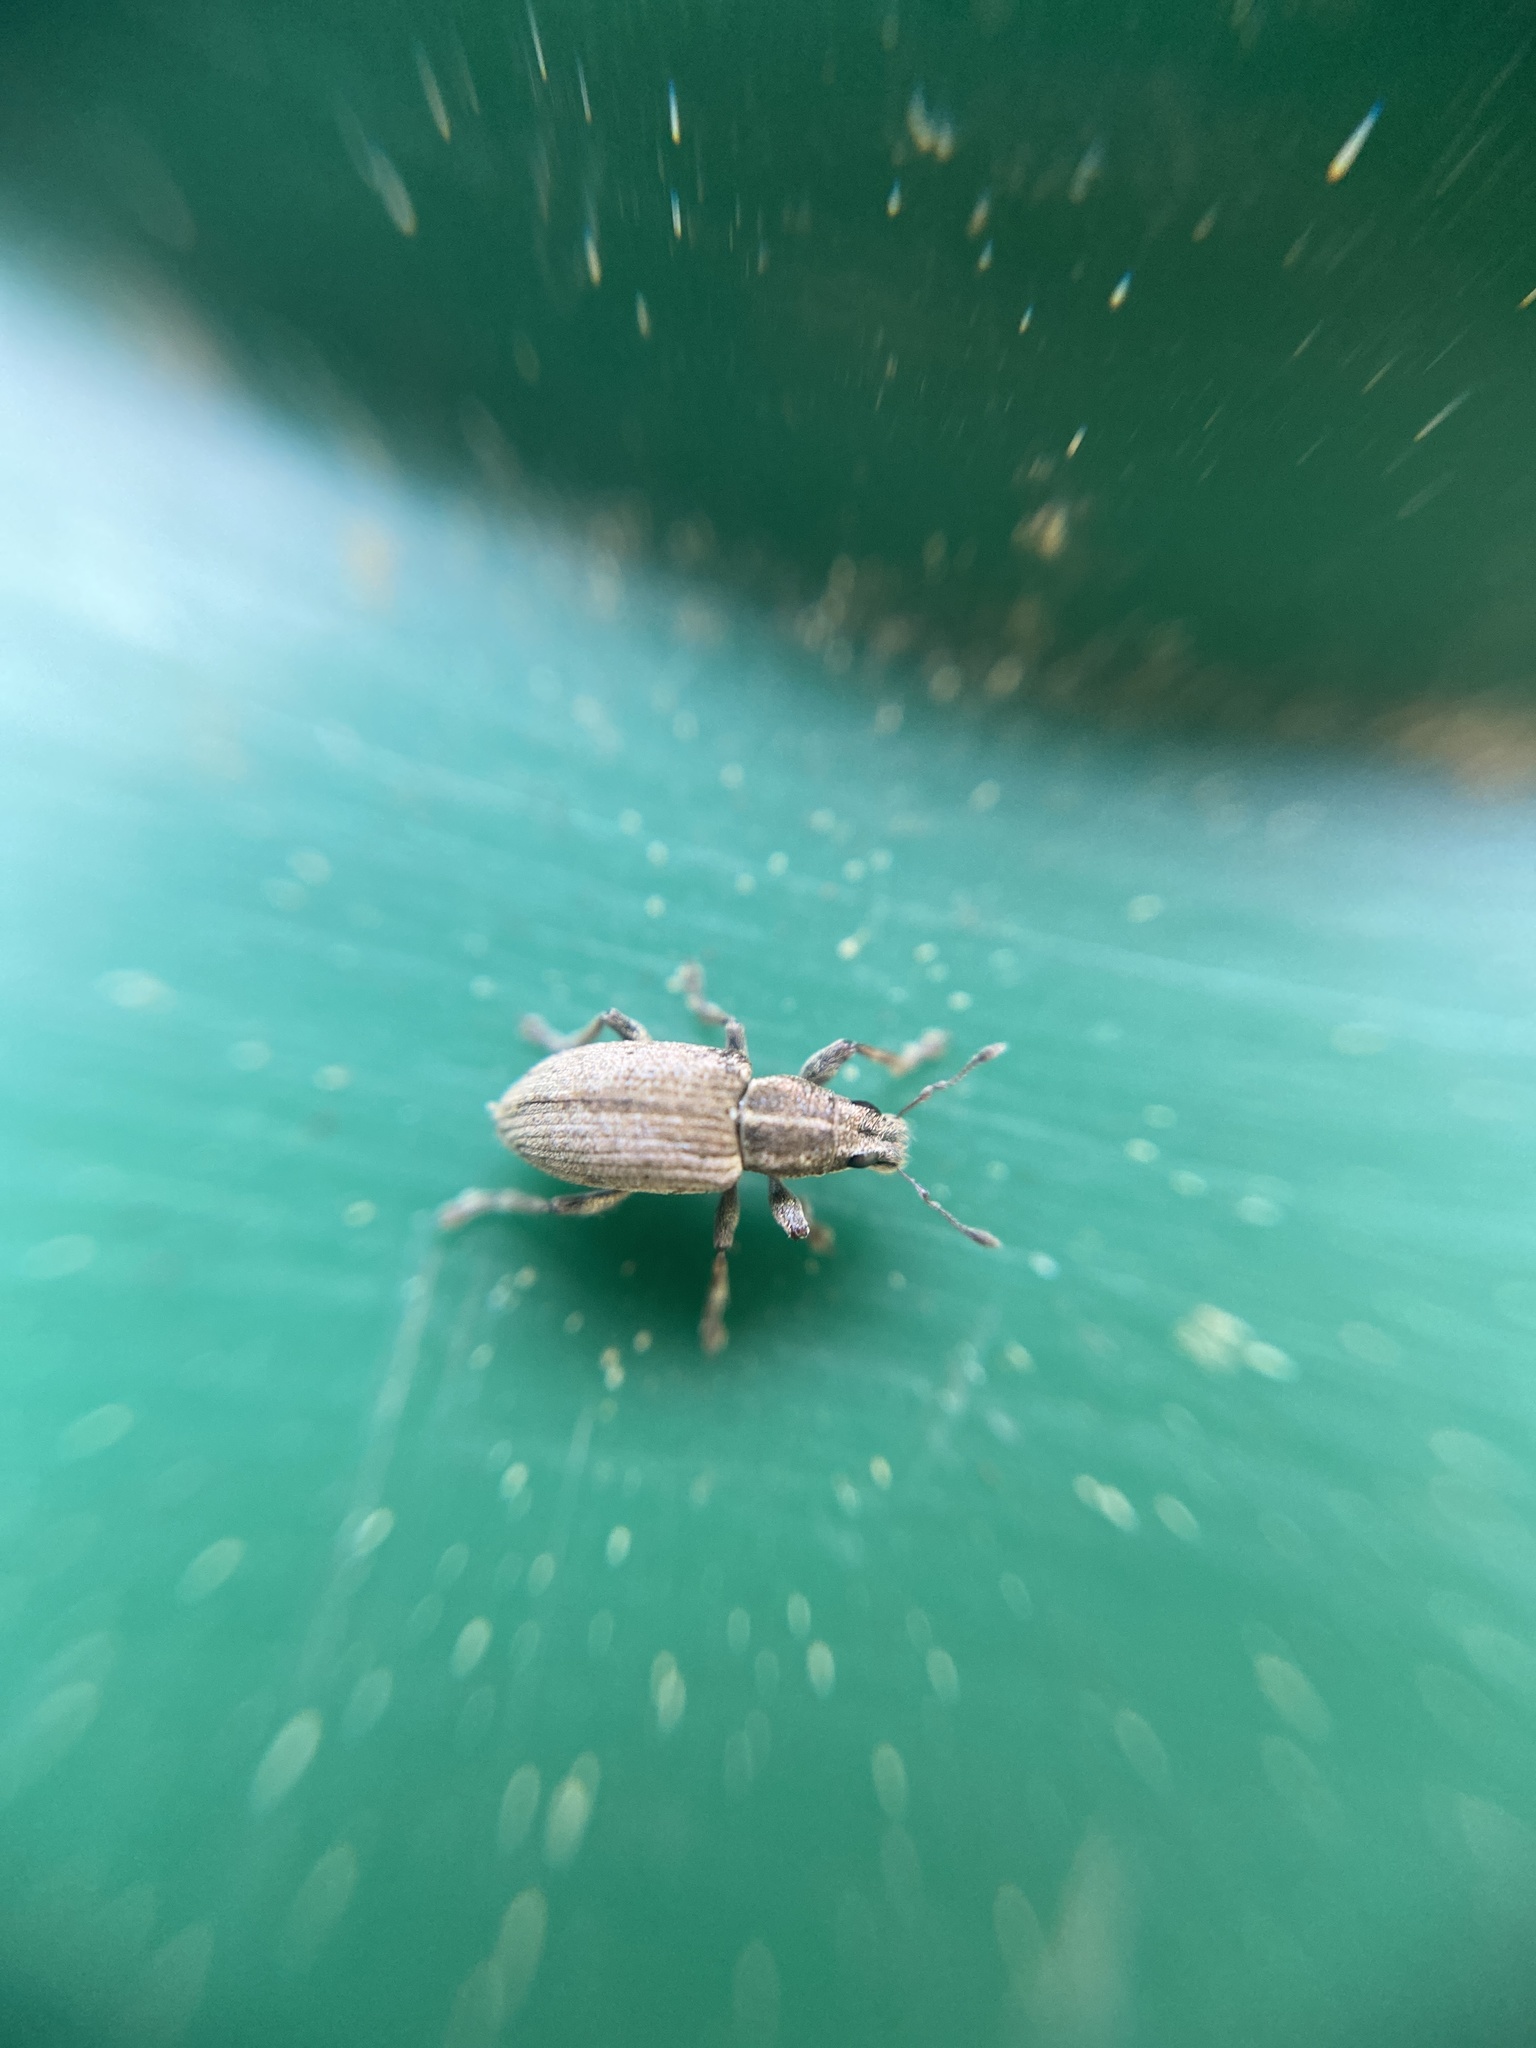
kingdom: Animalia
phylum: Arthropoda
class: Insecta
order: Coleoptera
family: Curculionidae
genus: Sitona
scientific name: Sitona humeralis
